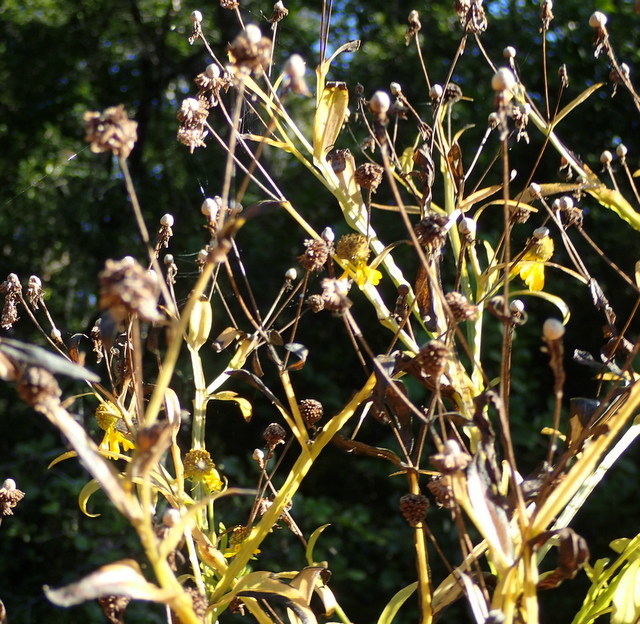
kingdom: Plantae
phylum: Tracheophyta
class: Magnoliopsida
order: Asterales
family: Asteraceae
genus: Helenium
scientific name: Helenium autumnale
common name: Sneezeweed
